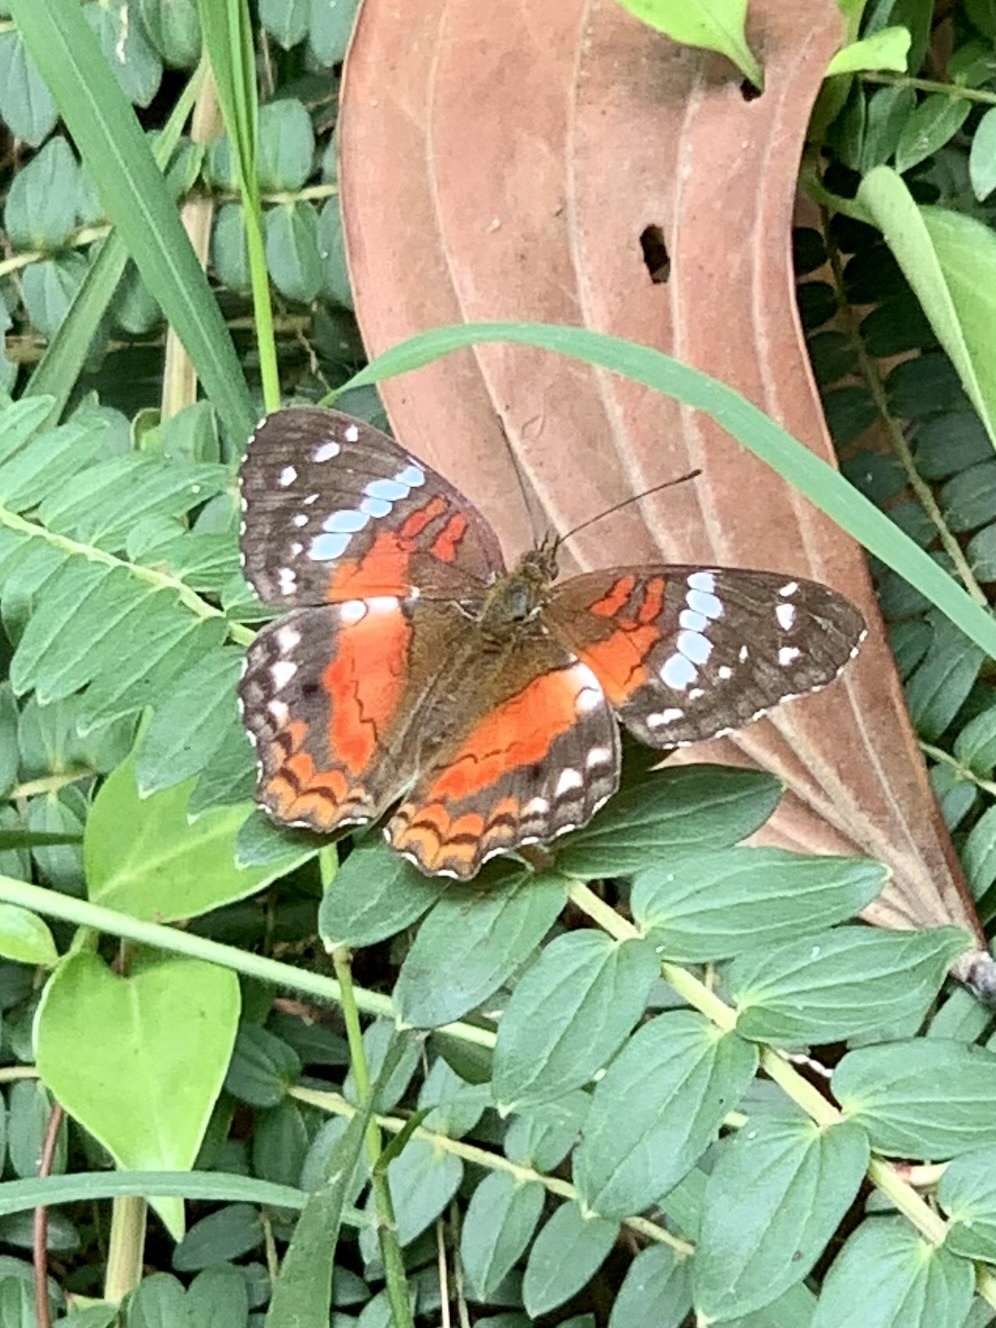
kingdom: Animalia
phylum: Arthropoda
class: Insecta
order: Lepidoptera
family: Nymphalidae
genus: Anartia
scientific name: Anartia amathea
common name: Red peacock
